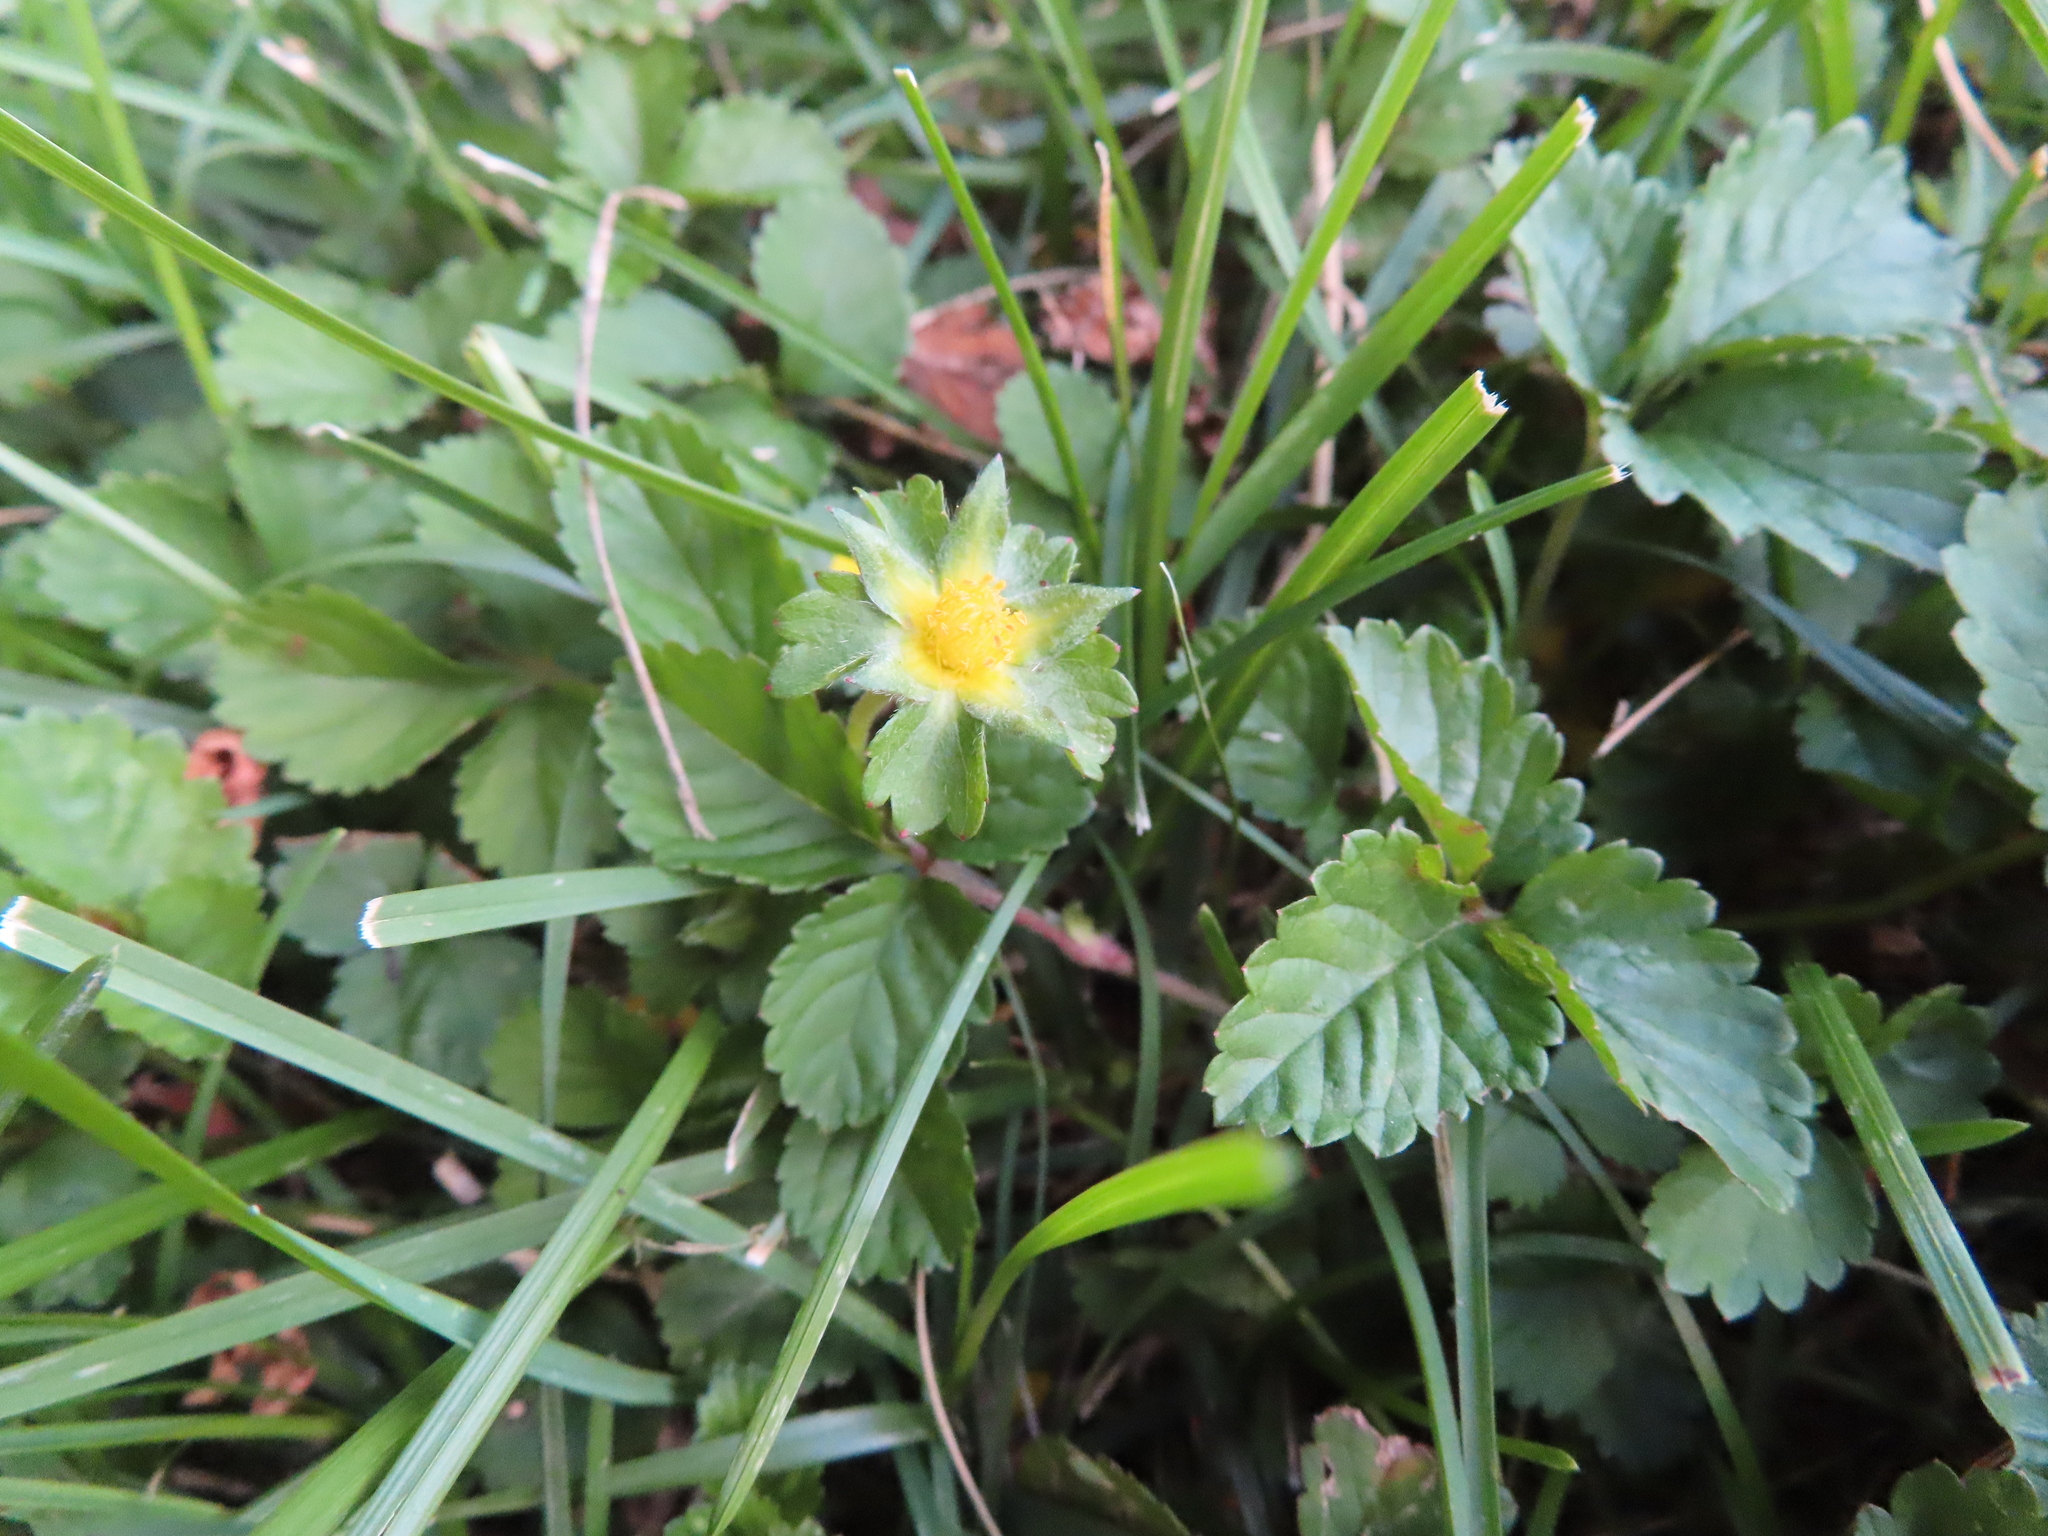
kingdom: Plantae
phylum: Tracheophyta
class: Magnoliopsida
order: Rosales
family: Rosaceae
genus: Potentilla
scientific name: Potentilla indica
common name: Yellow-flowered strawberry
